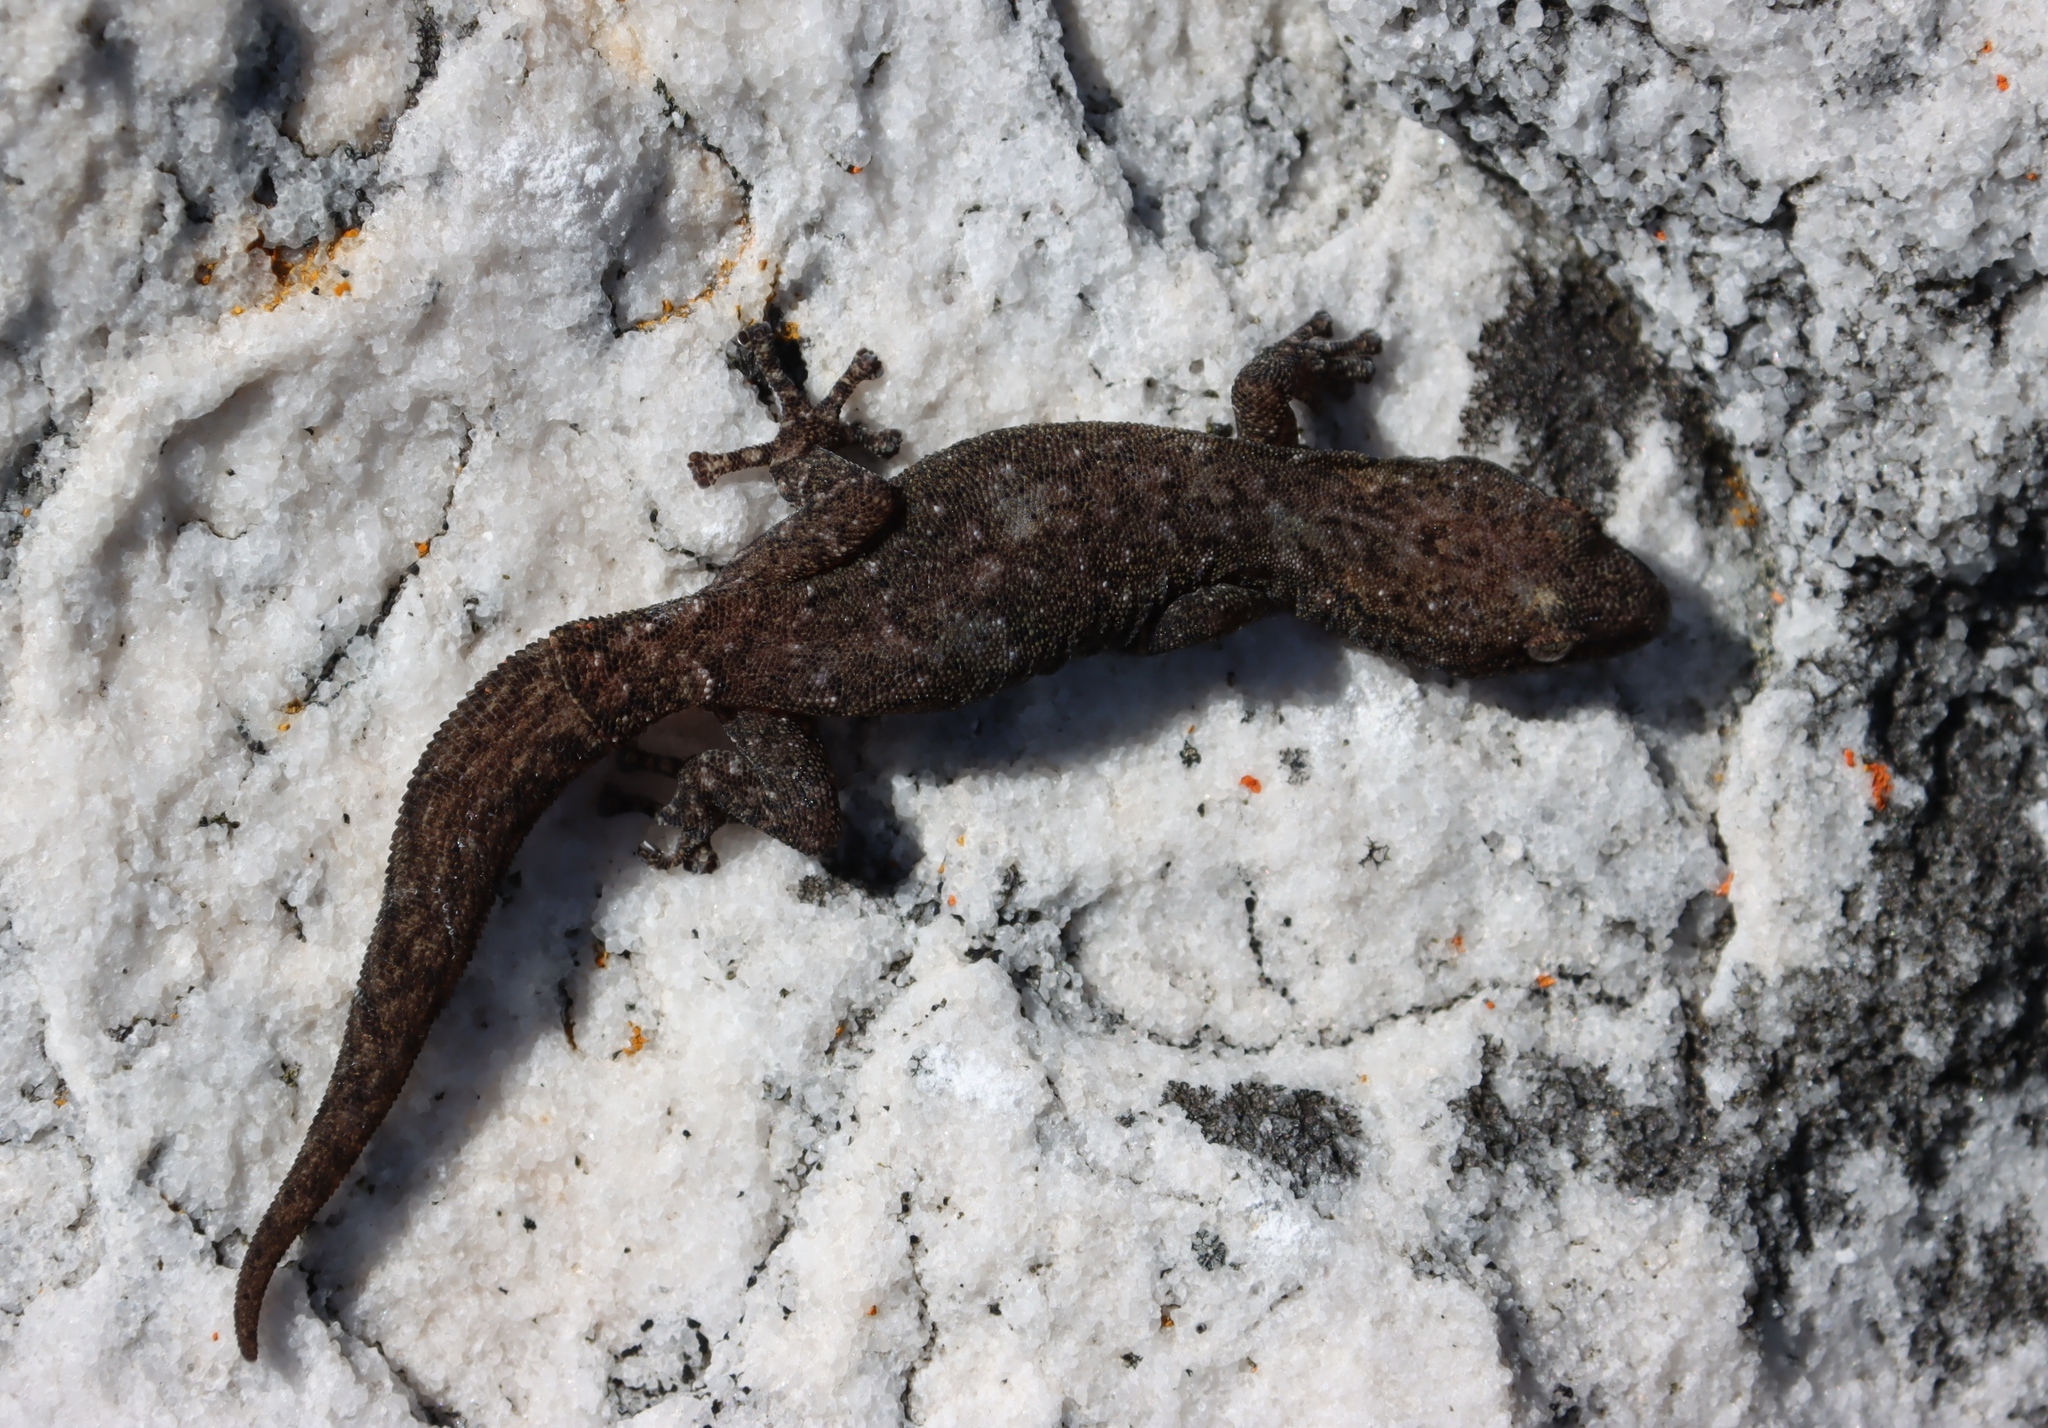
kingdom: Animalia
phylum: Chordata
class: Squamata
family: Gekkonidae
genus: Afrogecko
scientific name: Afrogecko porphyreus
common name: Marbled leaf-toed gecko
